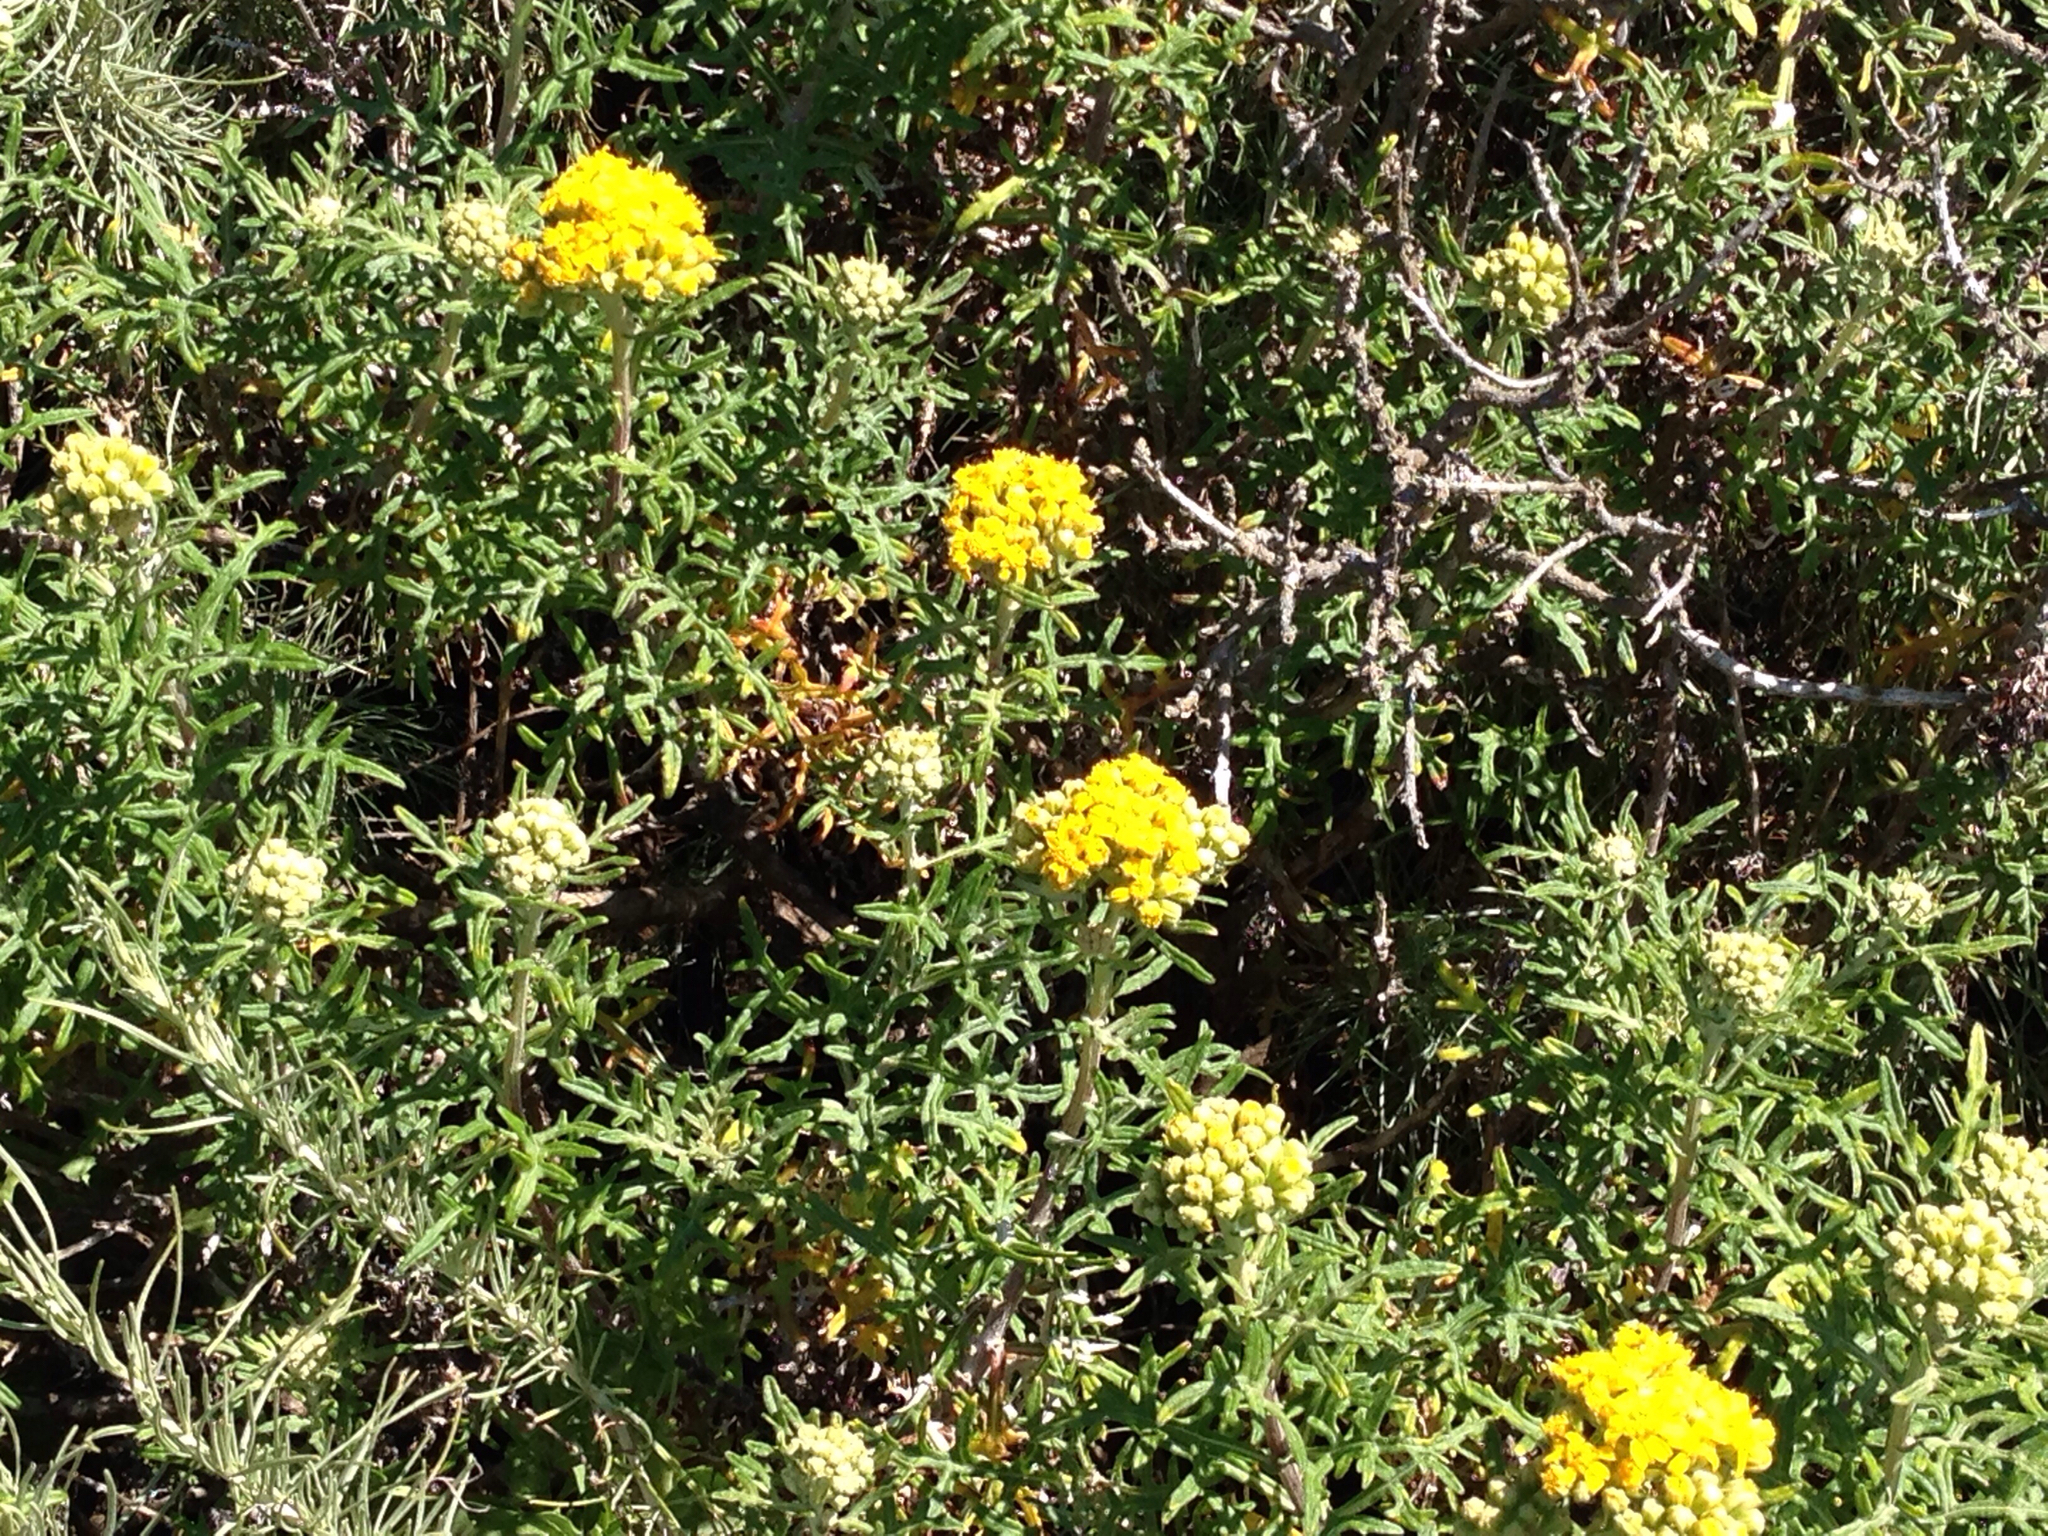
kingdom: Plantae
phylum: Tracheophyta
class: Magnoliopsida
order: Asterales
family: Asteraceae
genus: Eriophyllum
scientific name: Eriophyllum staechadifolium
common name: Lizardtail
